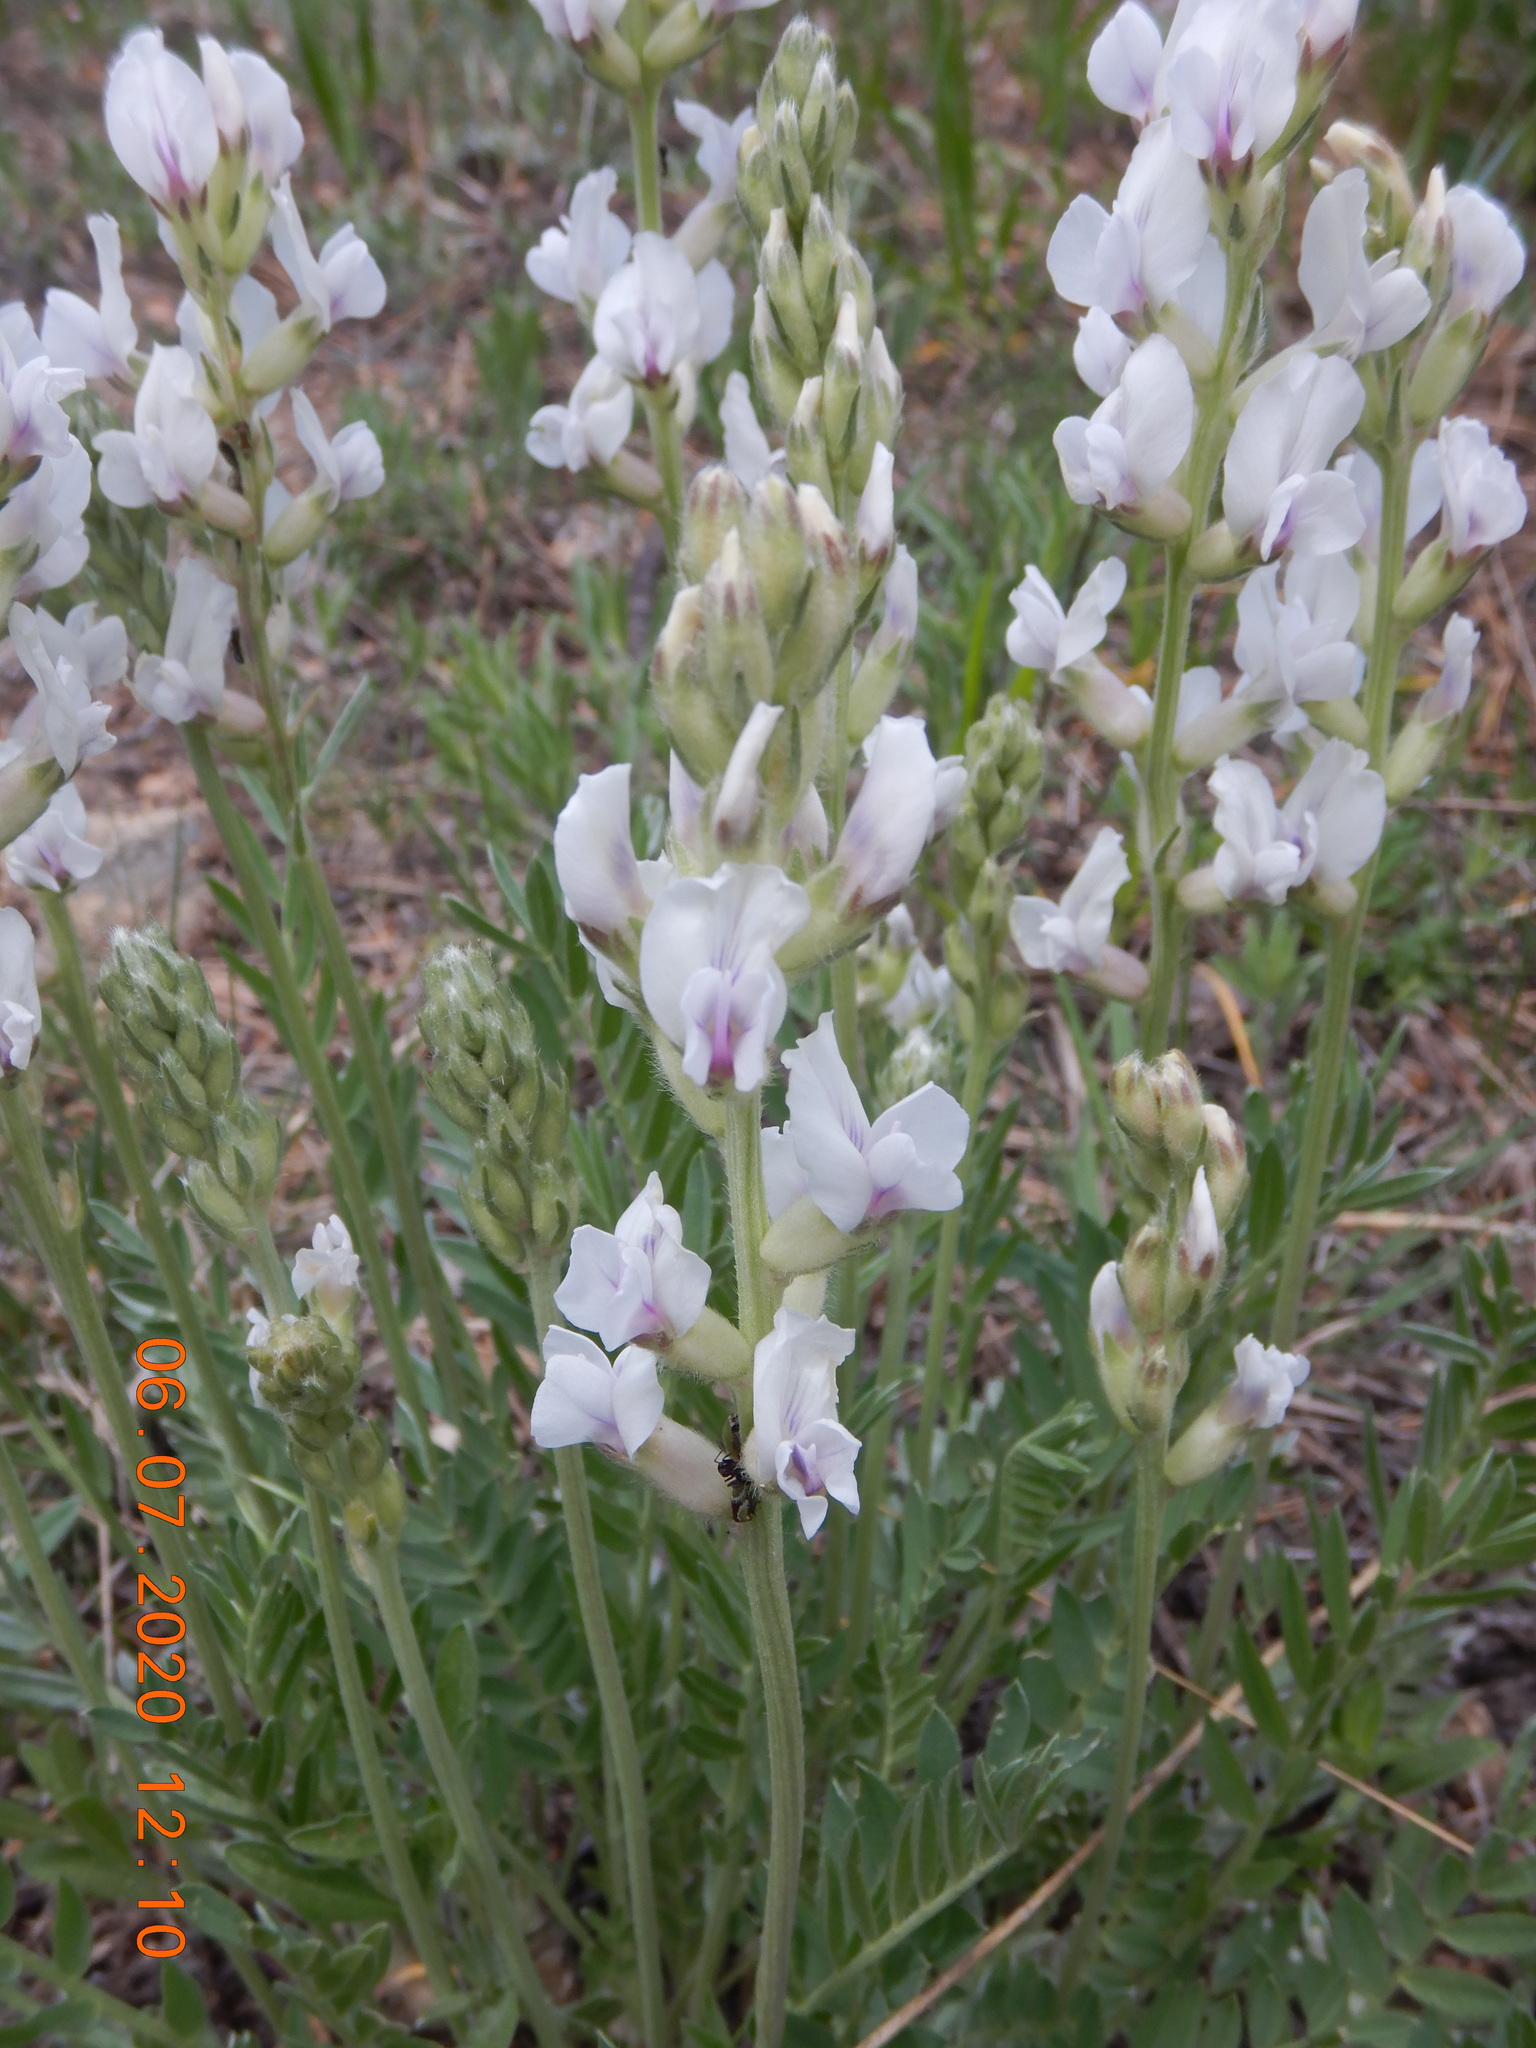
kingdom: Plantae
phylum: Tracheophyta
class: Magnoliopsida
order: Fabales
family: Fabaceae
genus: Oxytropis
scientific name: Oxytropis sericea
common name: Silky locoweed
